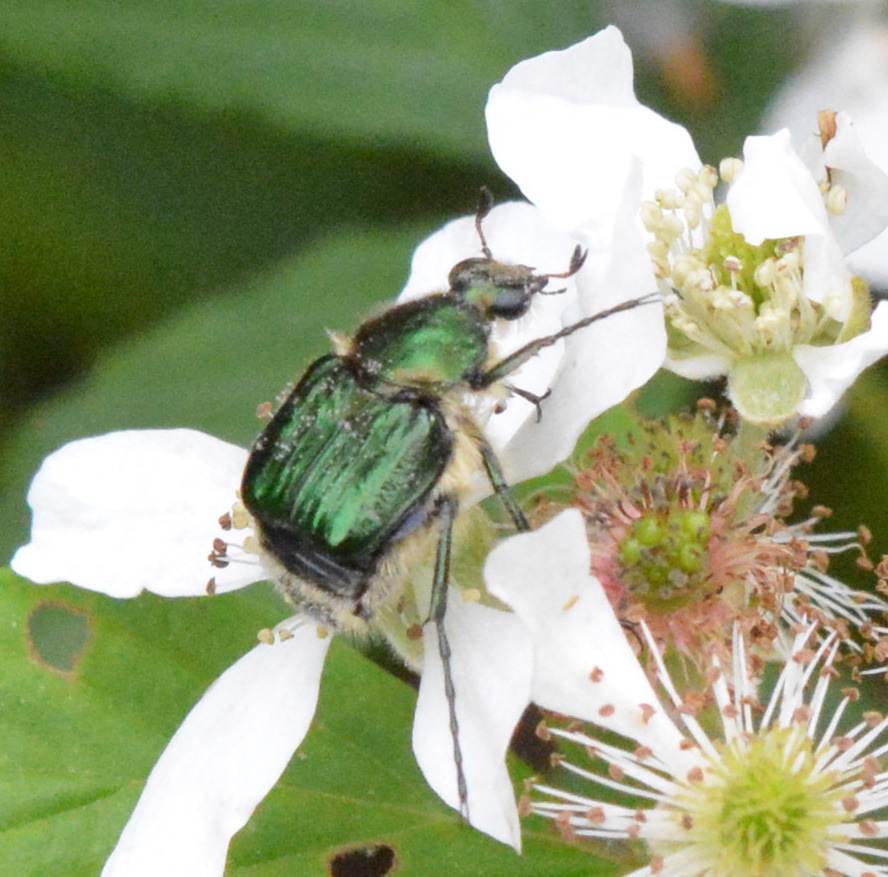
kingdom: Animalia
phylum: Arthropoda
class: Insecta
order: Coleoptera
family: Scarabaeidae
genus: Trichiotinus
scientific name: Trichiotinus lunulatus
